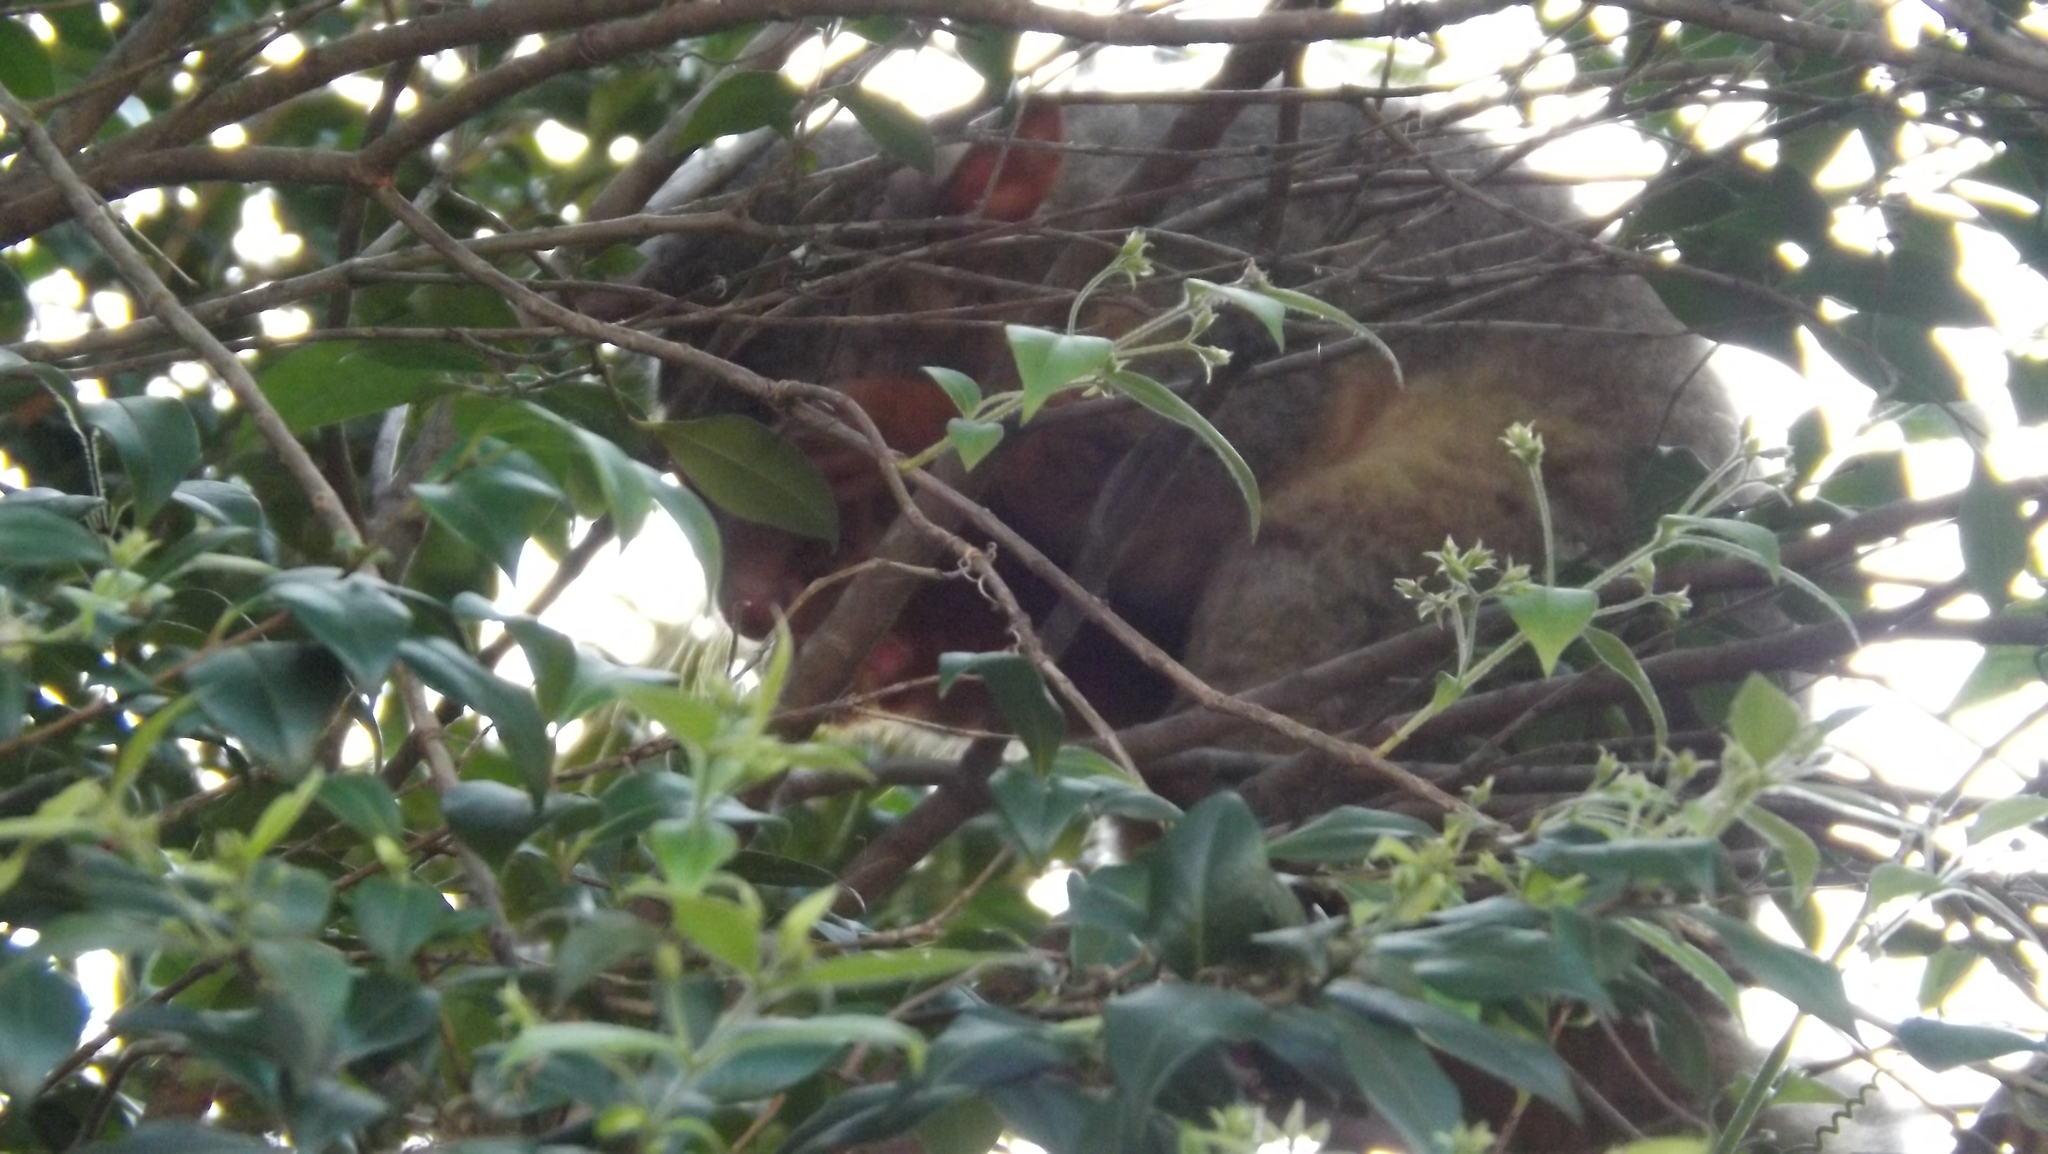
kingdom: Animalia
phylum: Chordata
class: Mammalia
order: Diprotodontia
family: Phalangeridae
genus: Trichosurus
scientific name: Trichosurus vulpecula
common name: Common brushtail
